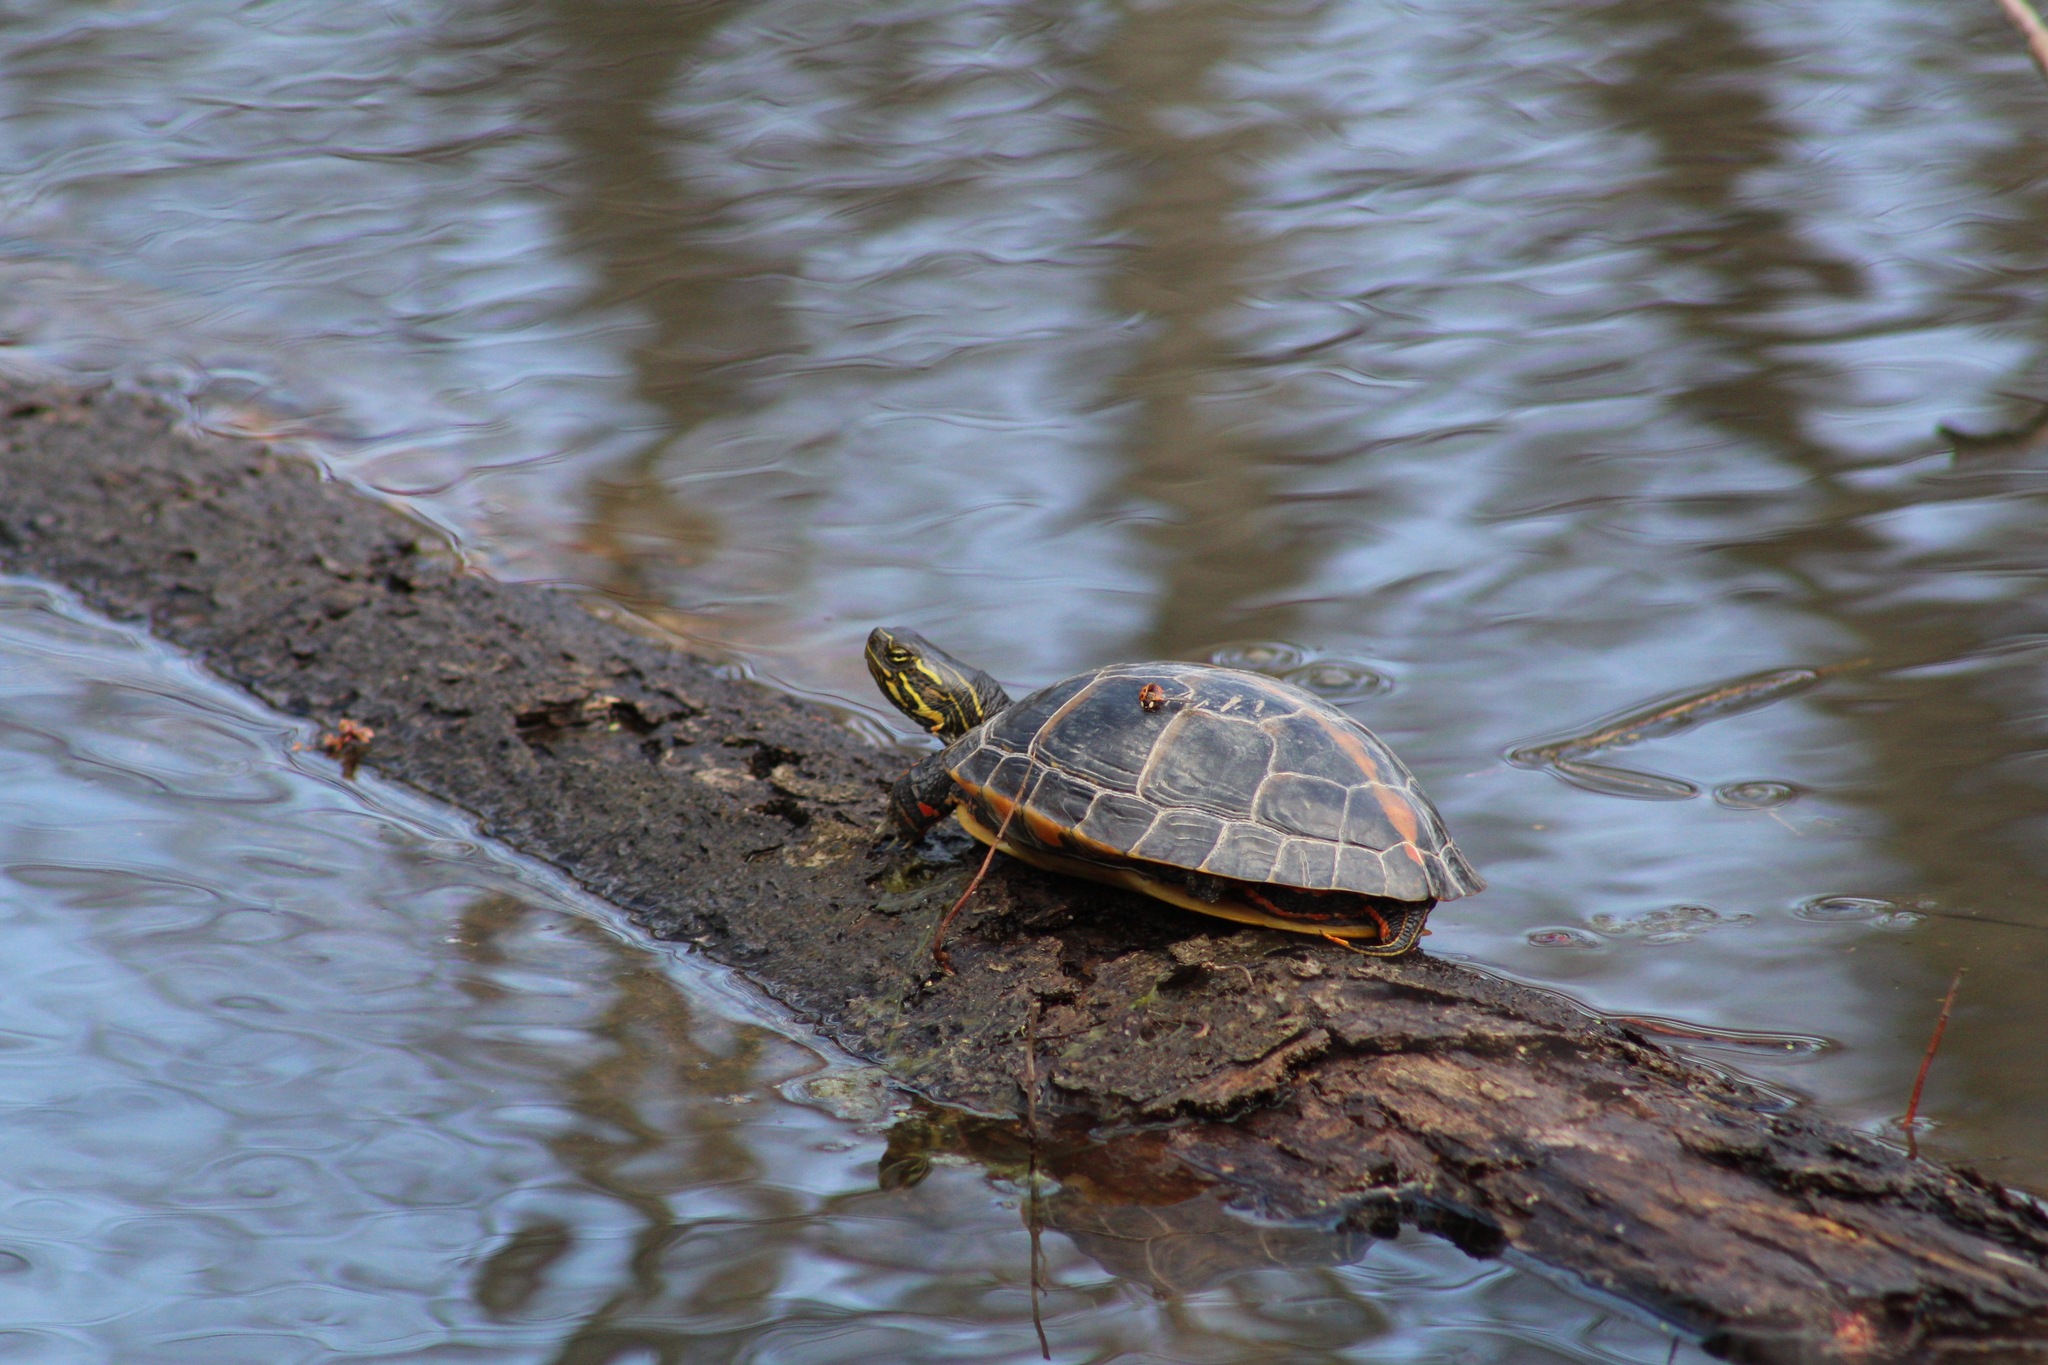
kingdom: Animalia
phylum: Chordata
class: Testudines
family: Emydidae
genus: Chrysemys
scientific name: Chrysemys dorsalis
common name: Southern painted turtle
